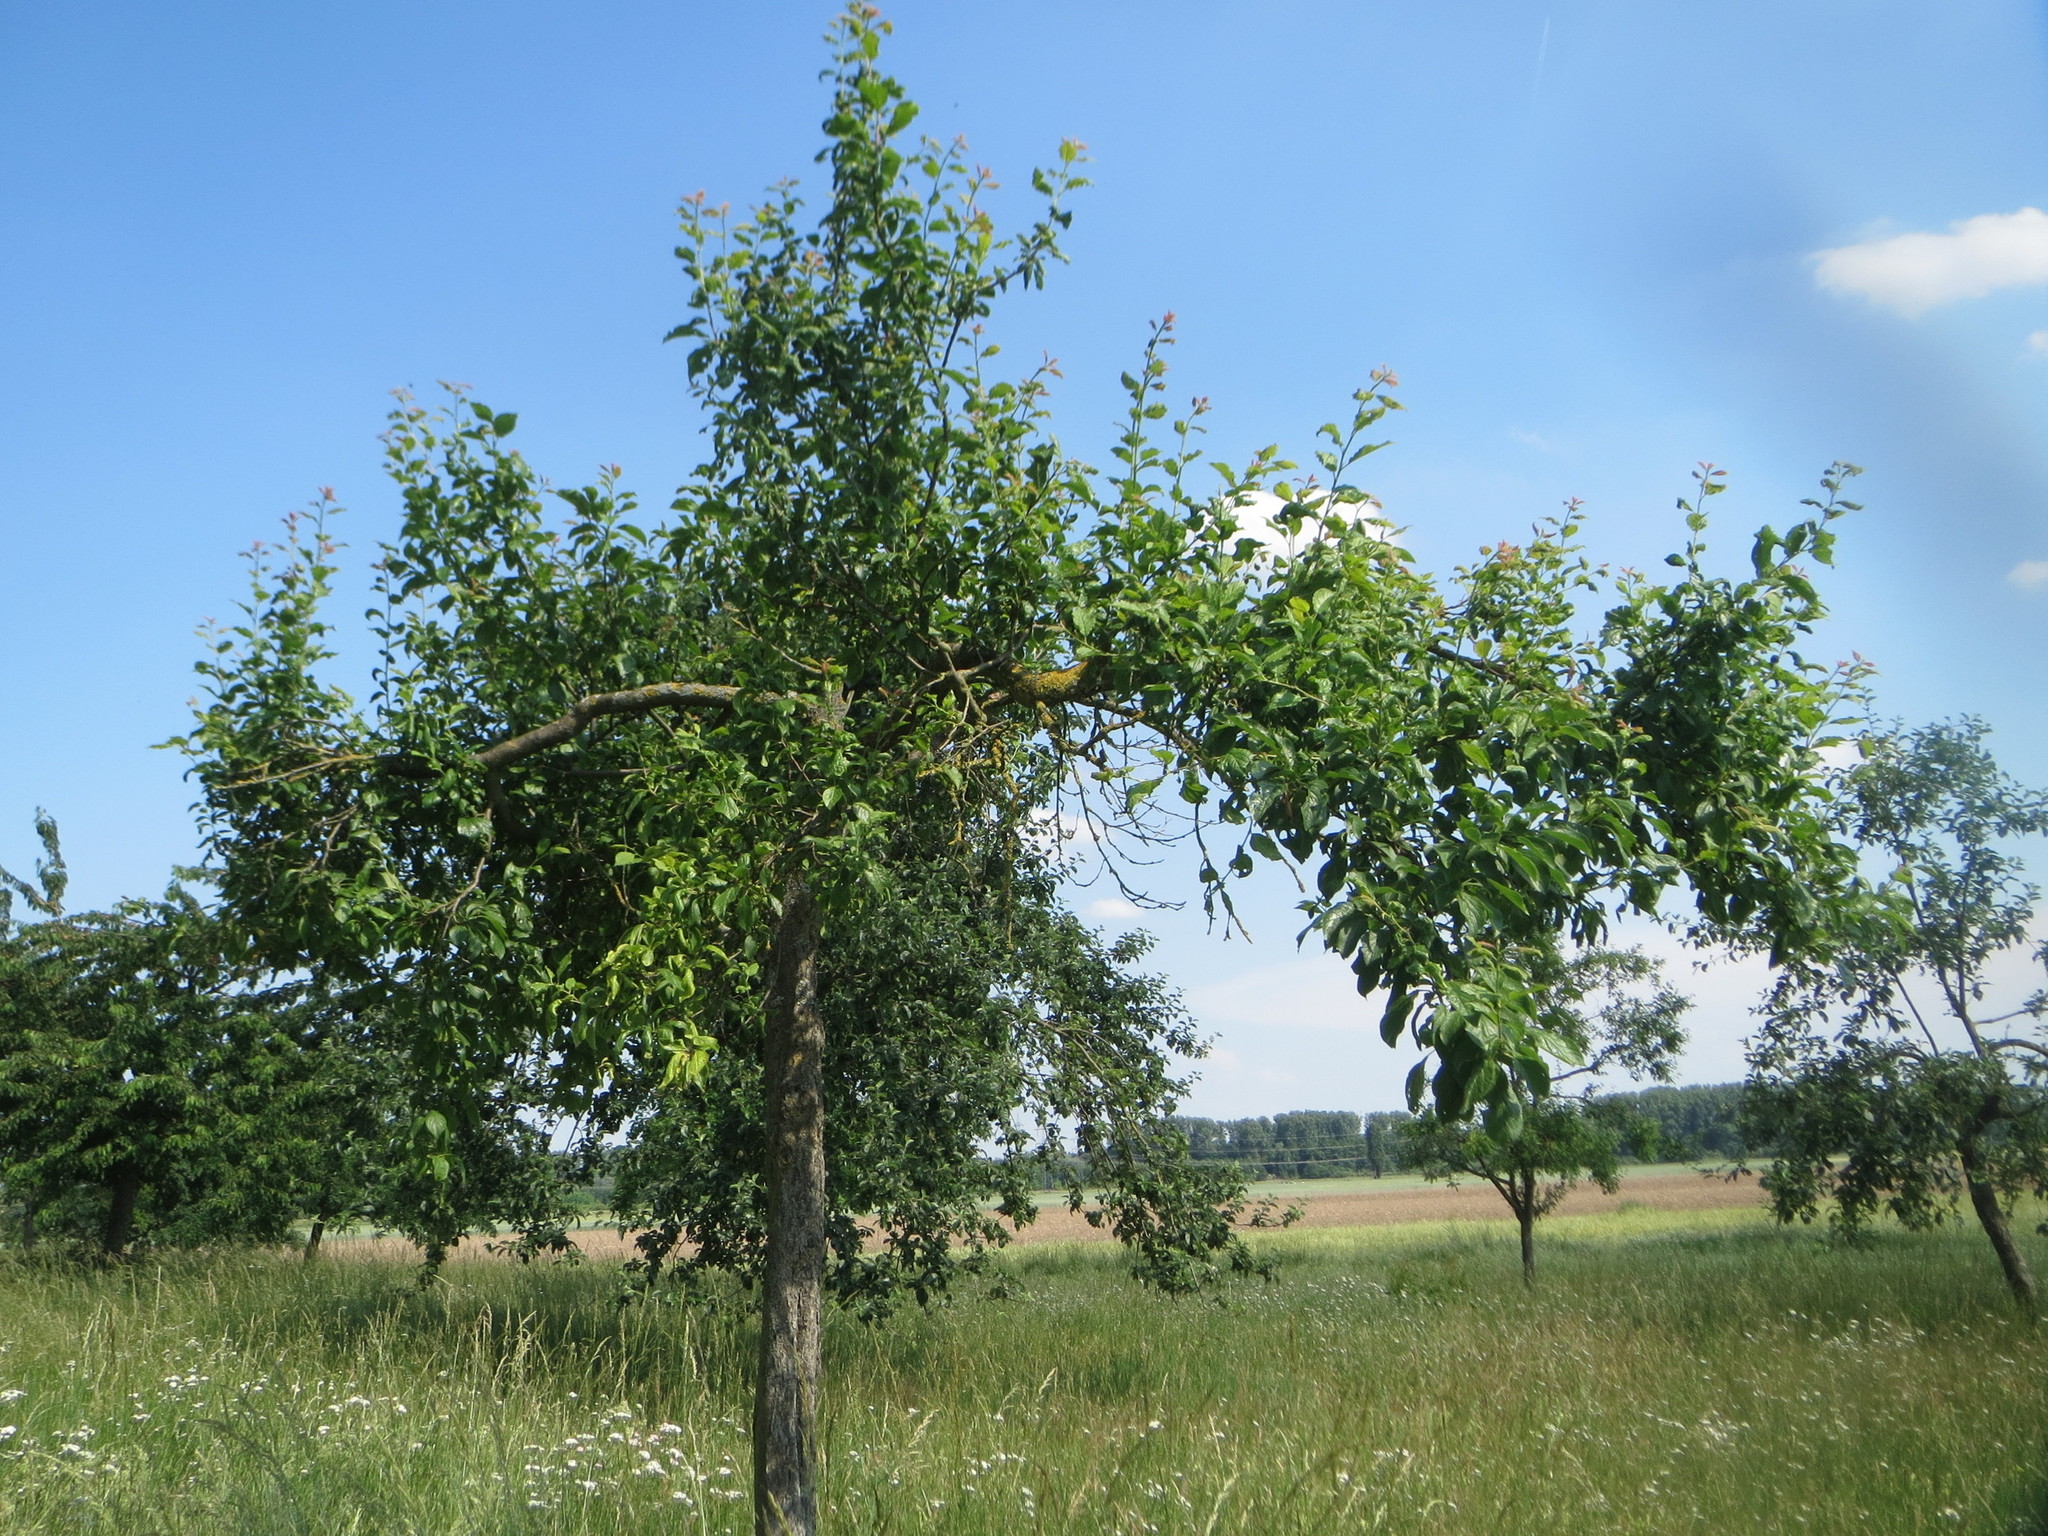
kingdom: Plantae
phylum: Tracheophyta
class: Magnoliopsida
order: Rosales
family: Rosaceae
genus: Malus
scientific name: Malus domestica
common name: Apple
